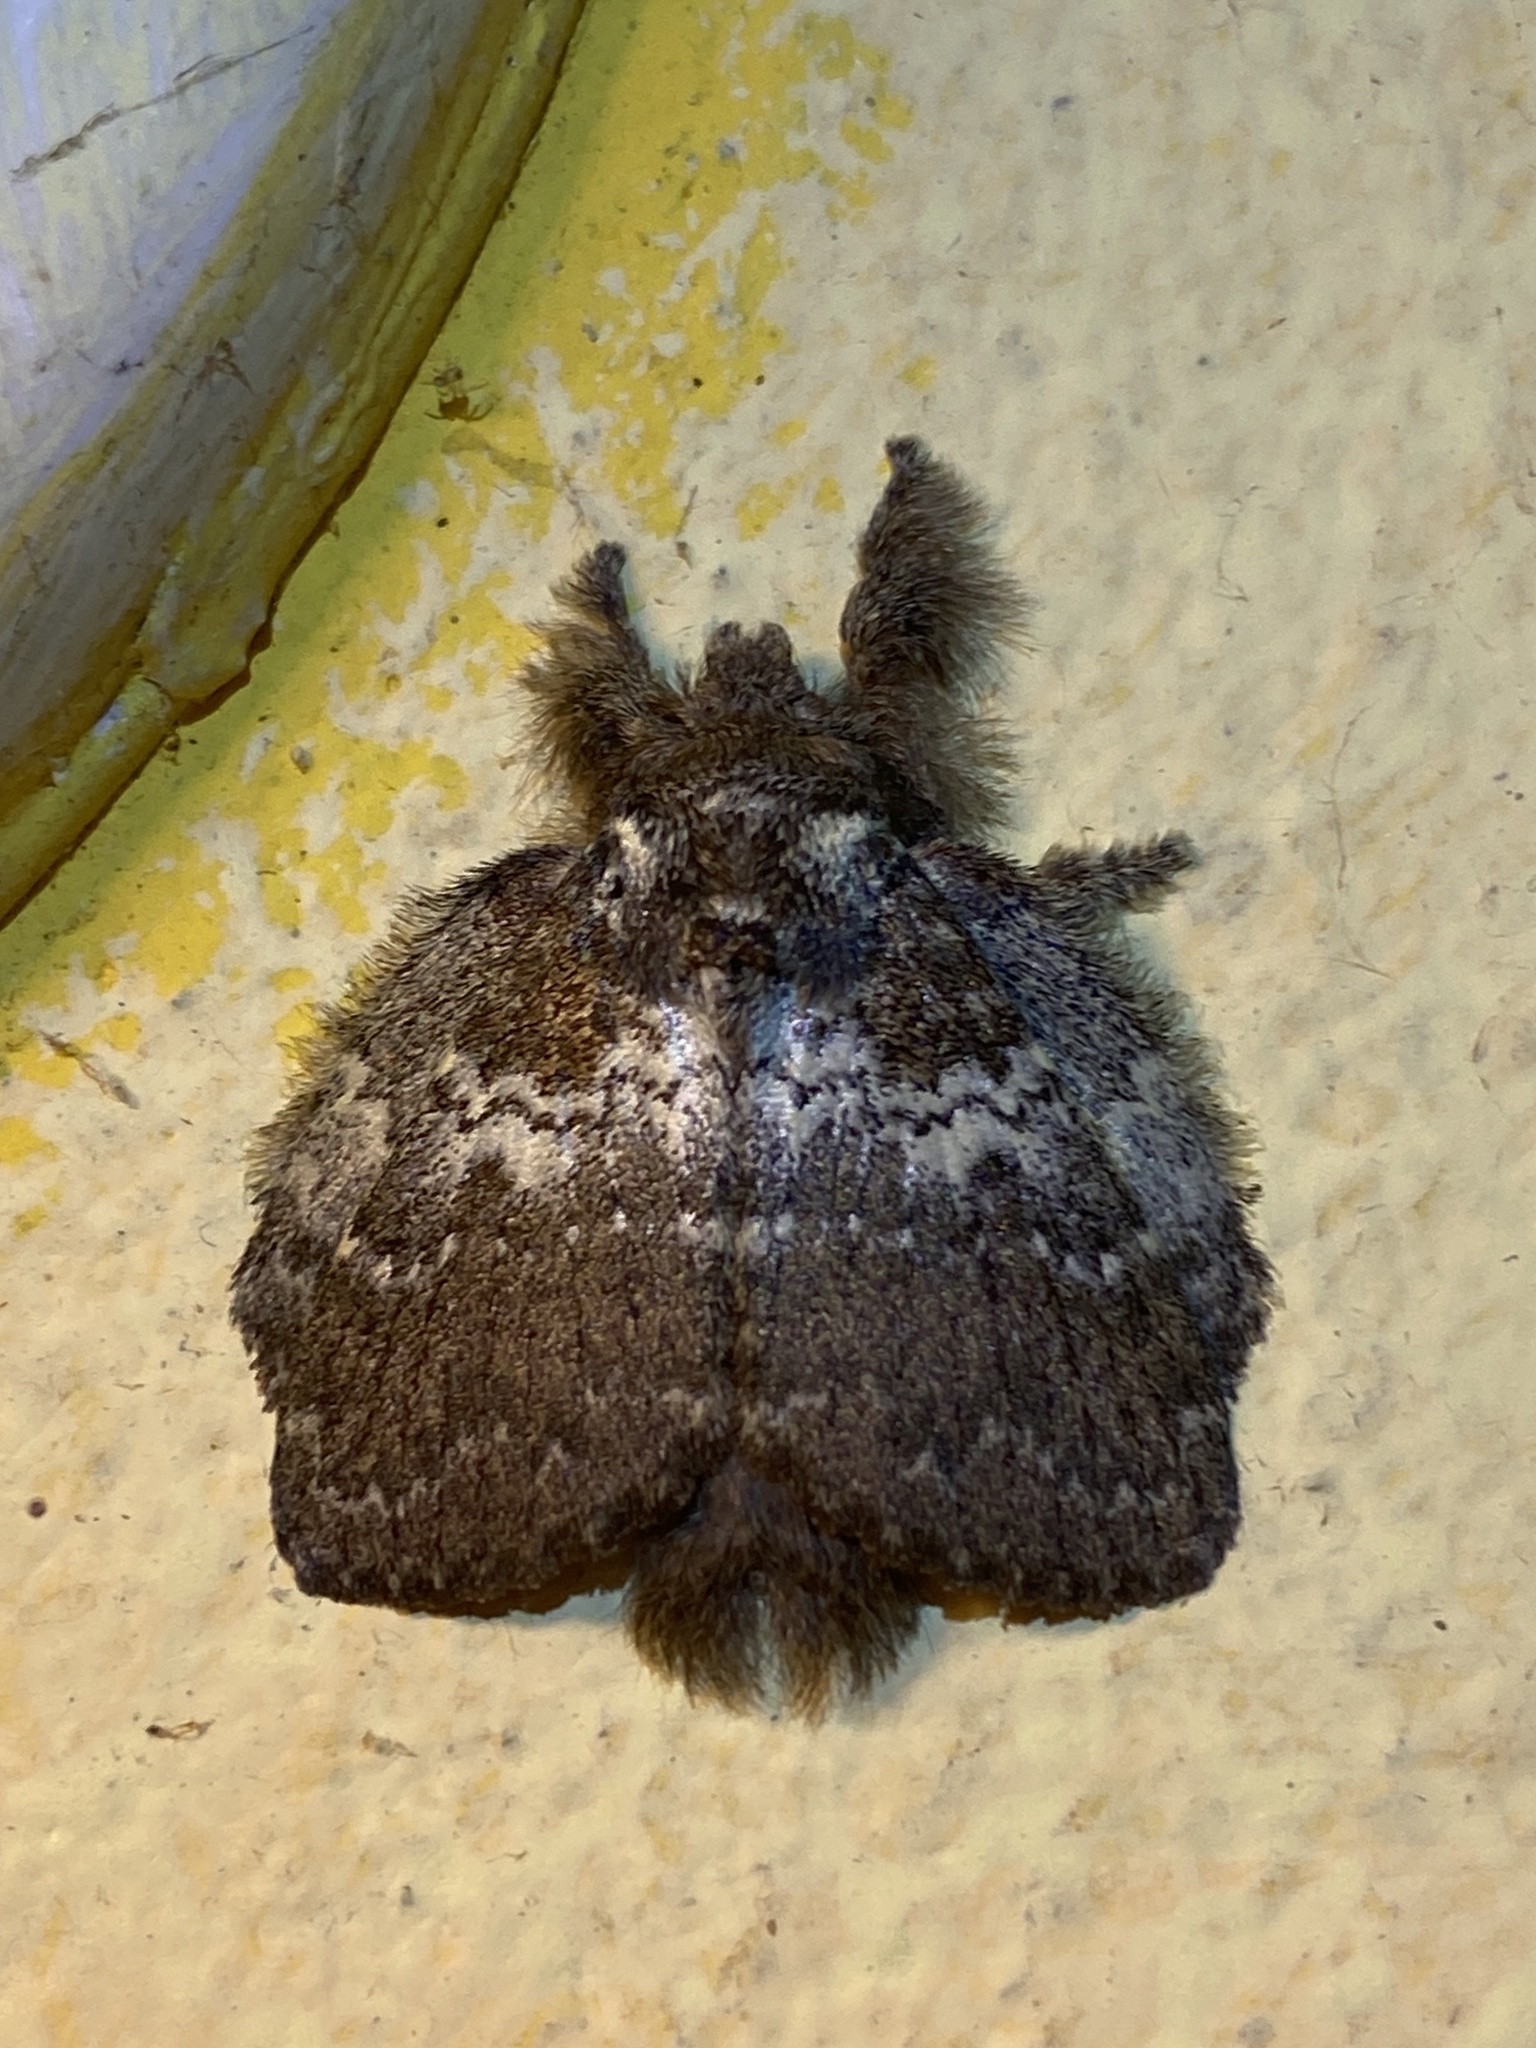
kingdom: Animalia
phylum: Arthropoda
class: Insecta
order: Lepidoptera
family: Lasiocampidae
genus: Euglyphis
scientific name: Euglyphis mediana
